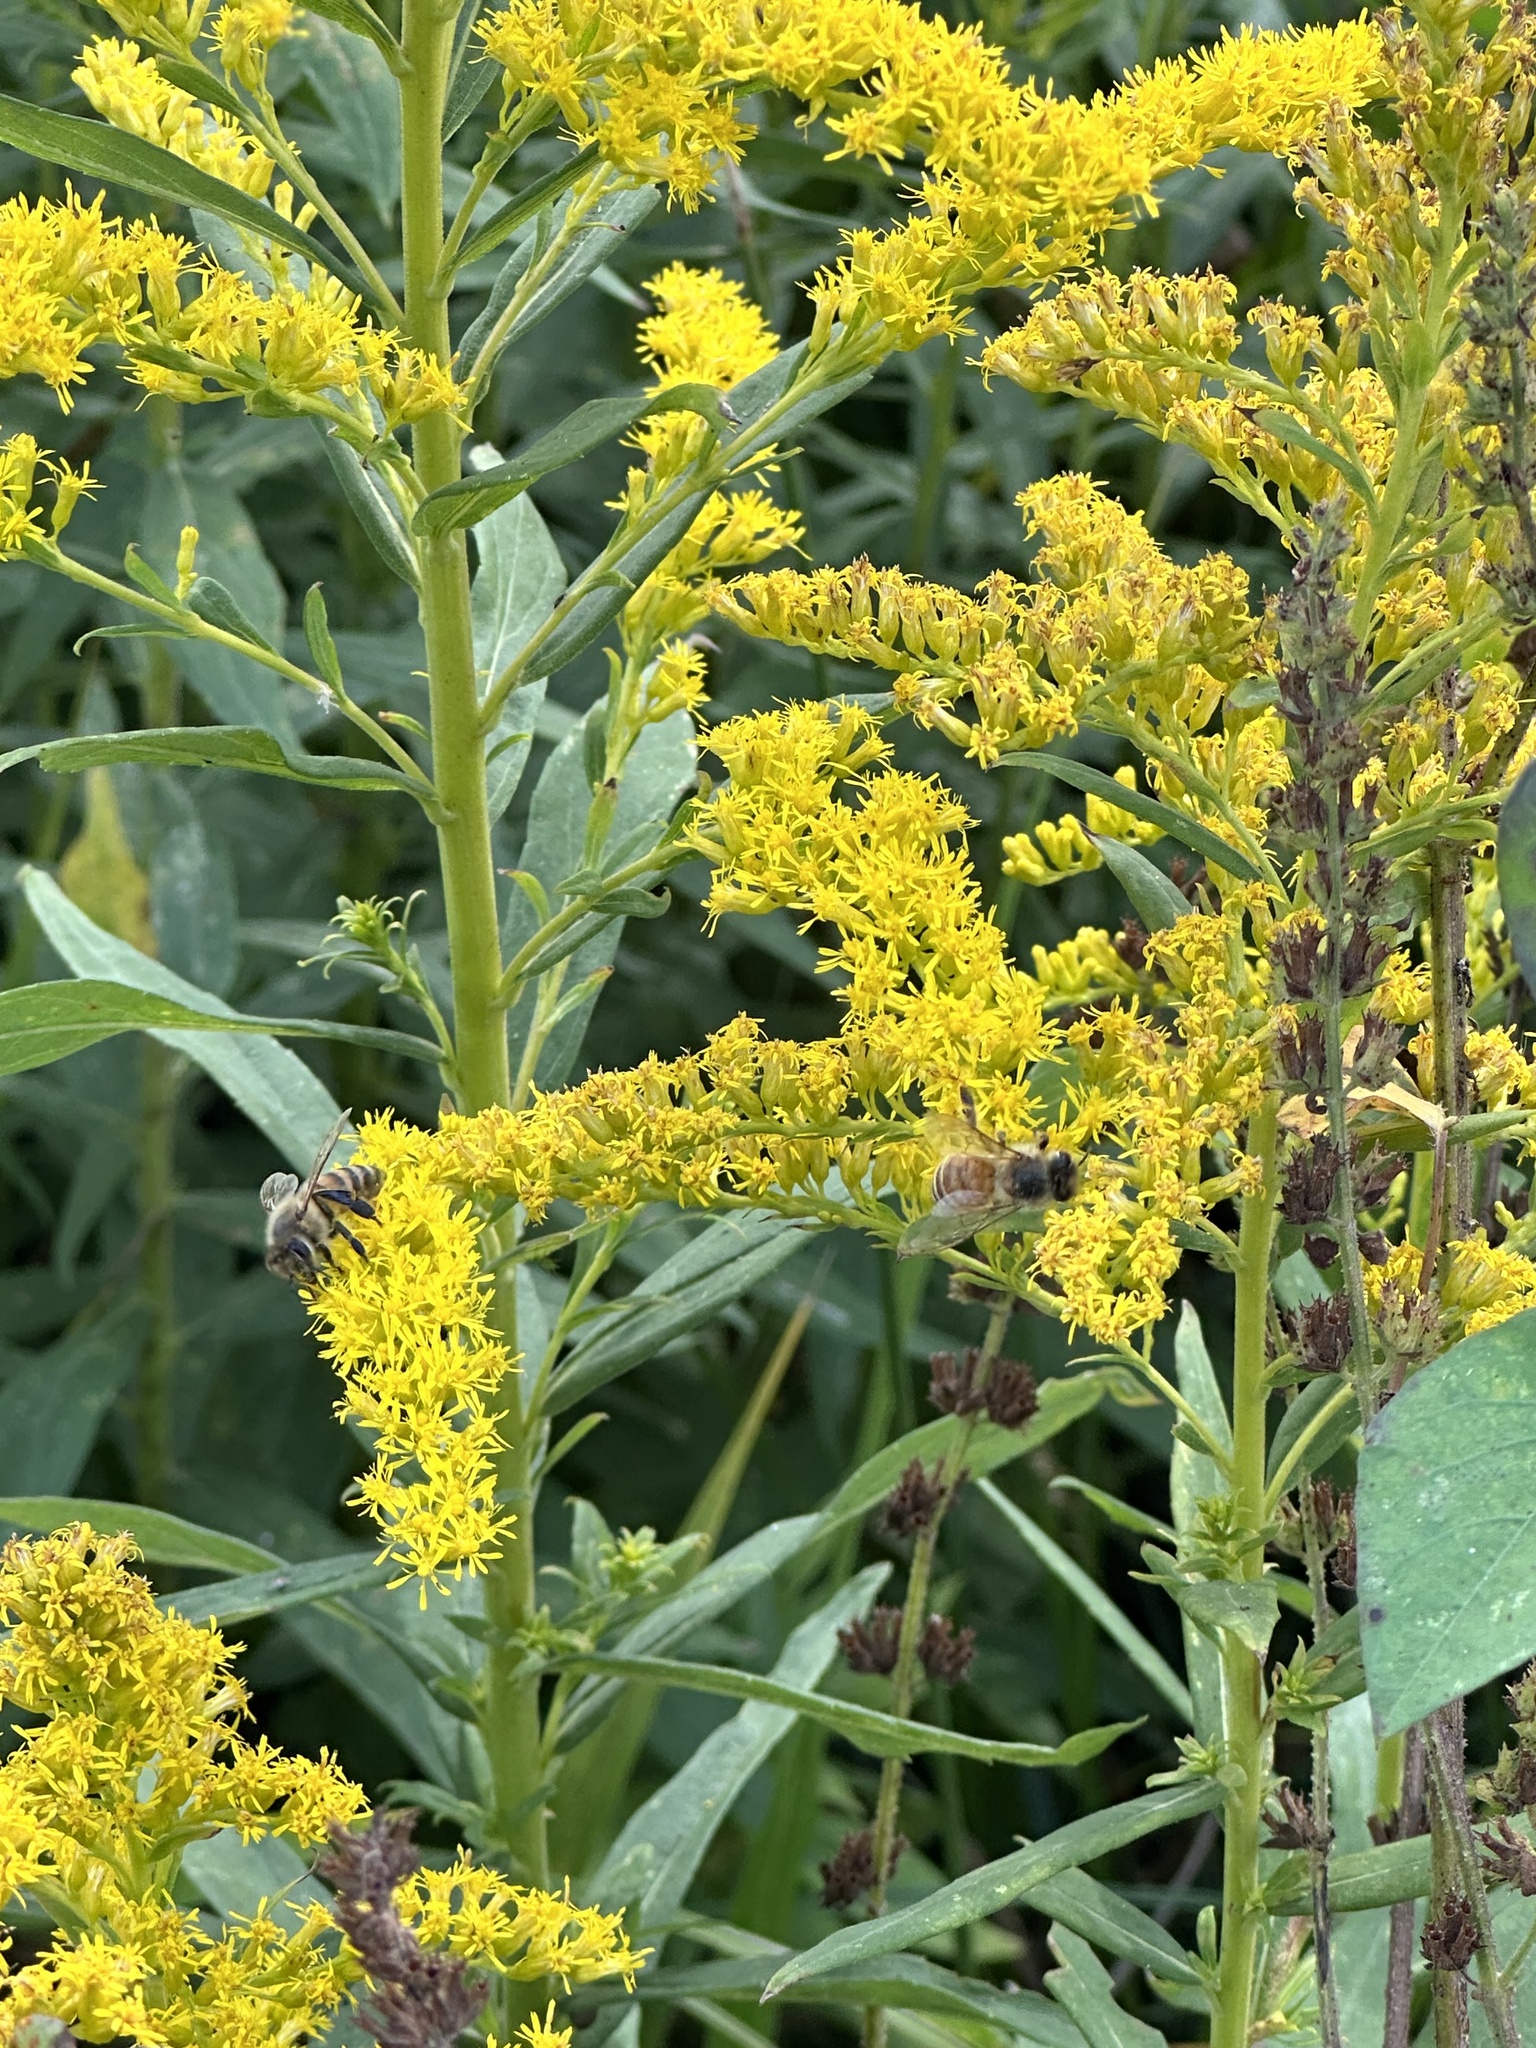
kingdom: Animalia
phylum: Arthropoda
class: Insecta
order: Hymenoptera
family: Apidae
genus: Apis
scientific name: Apis mellifera
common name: Honey bee
